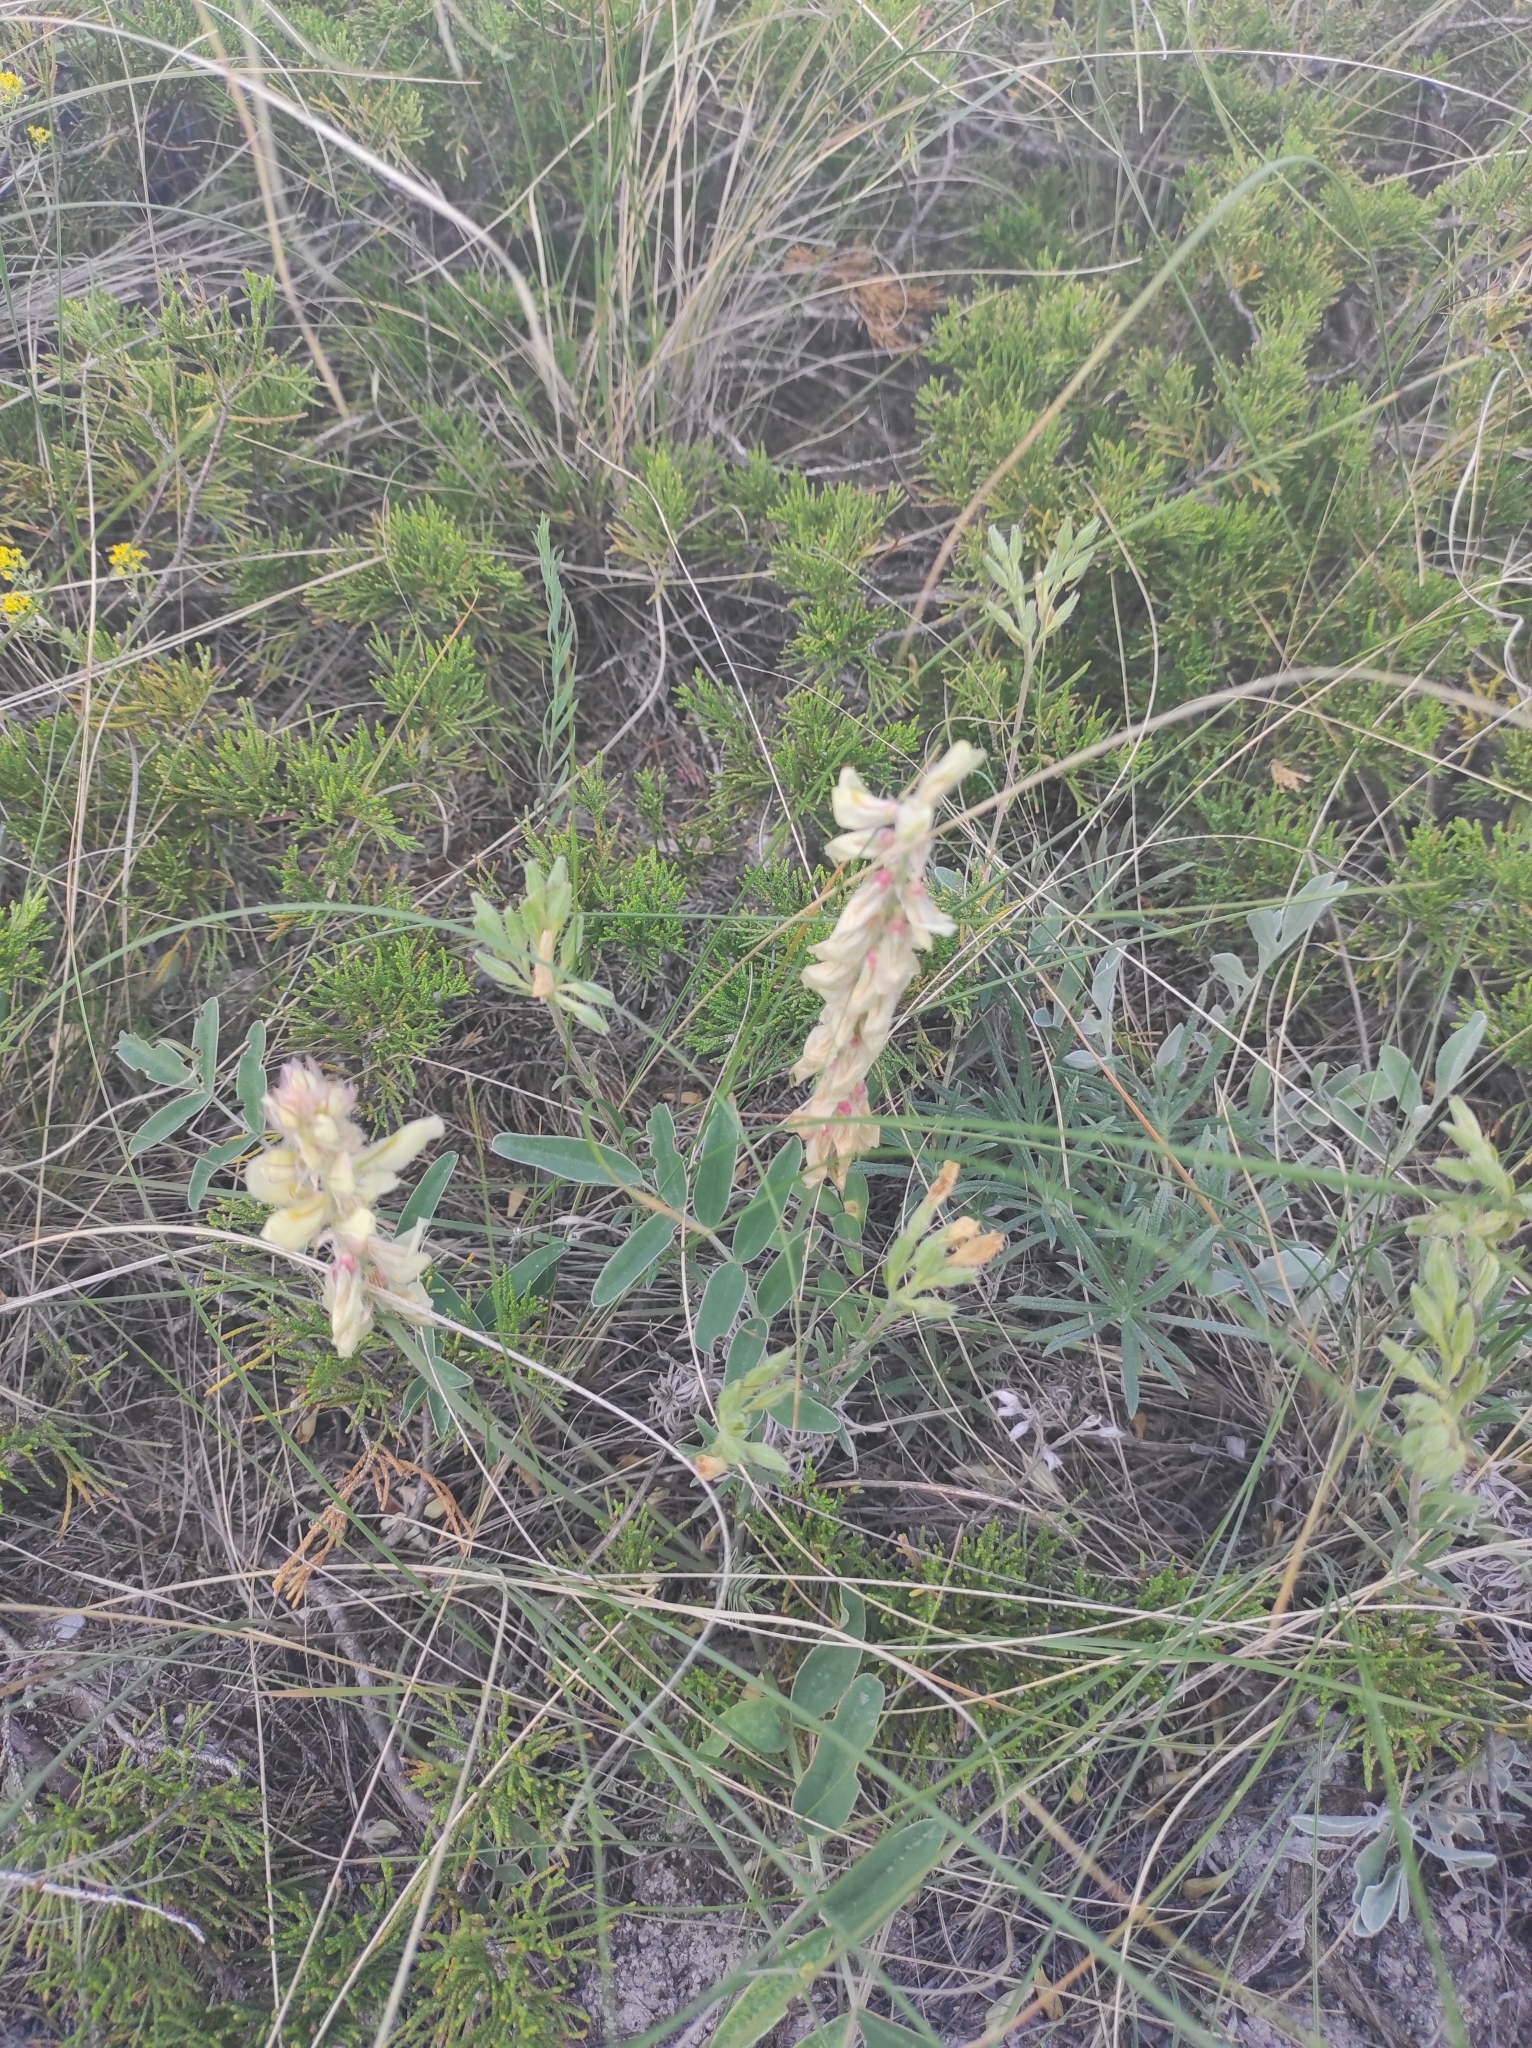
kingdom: Plantae
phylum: Tracheophyta
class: Magnoliopsida
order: Fabales
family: Fabaceae
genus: Hedysarum
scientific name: Hedysarum grandiflorum
